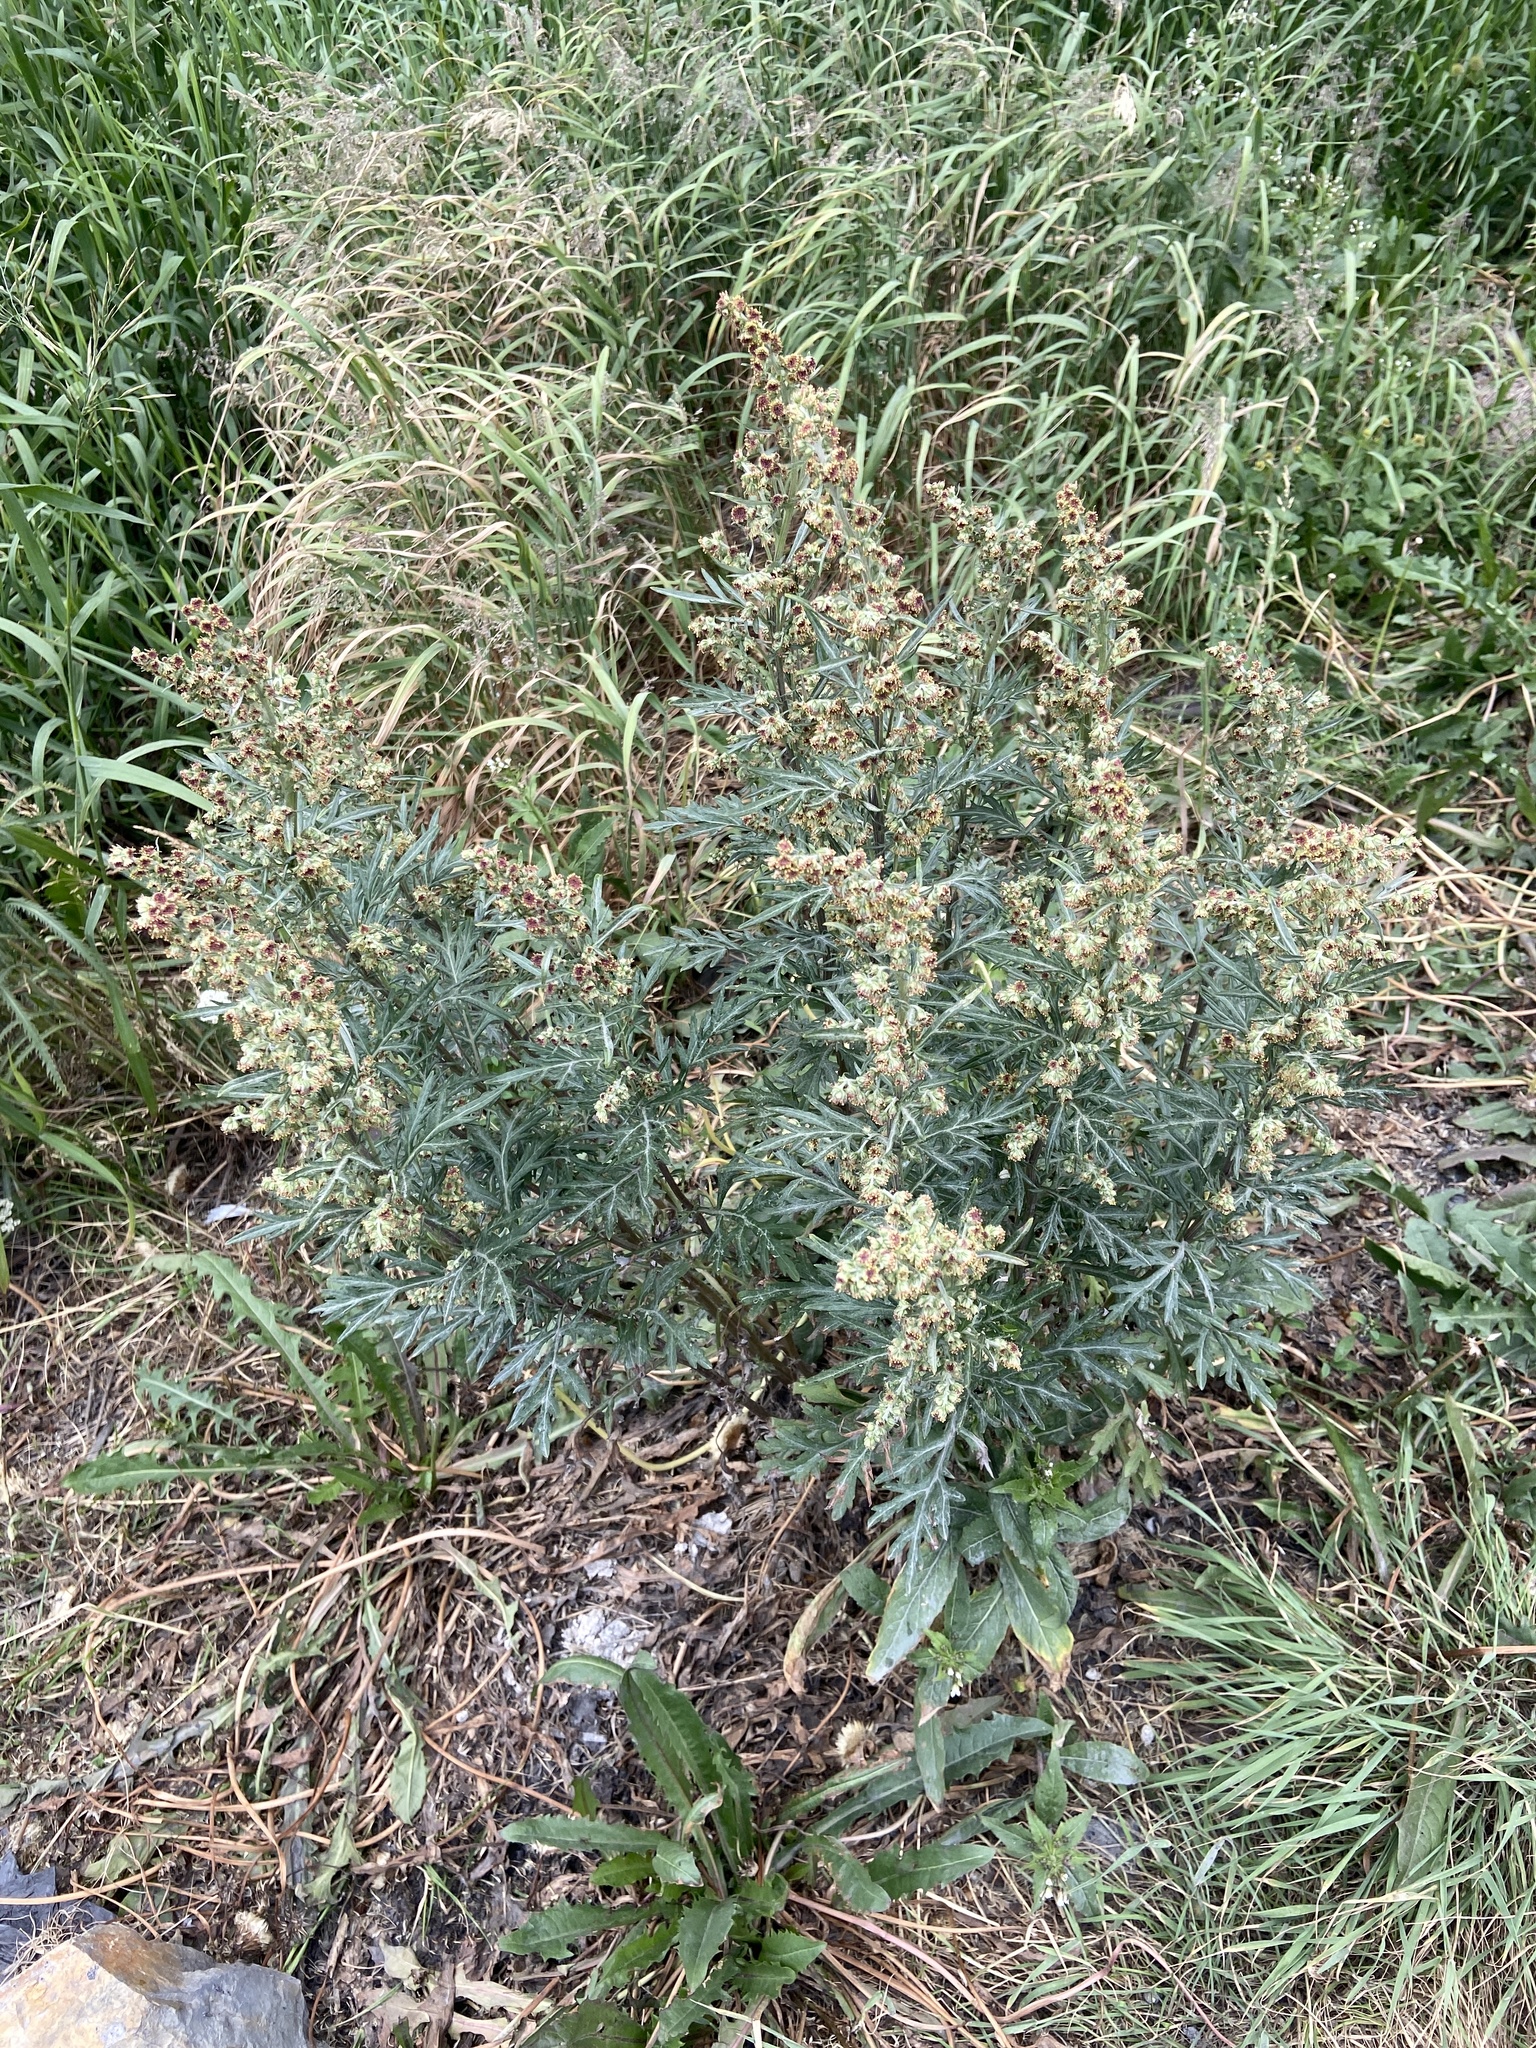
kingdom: Plantae
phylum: Tracheophyta
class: Magnoliopsida
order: Asterales
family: Asteraceae
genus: Artemisia
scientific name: Artemisia vulgaris
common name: Mugwort
